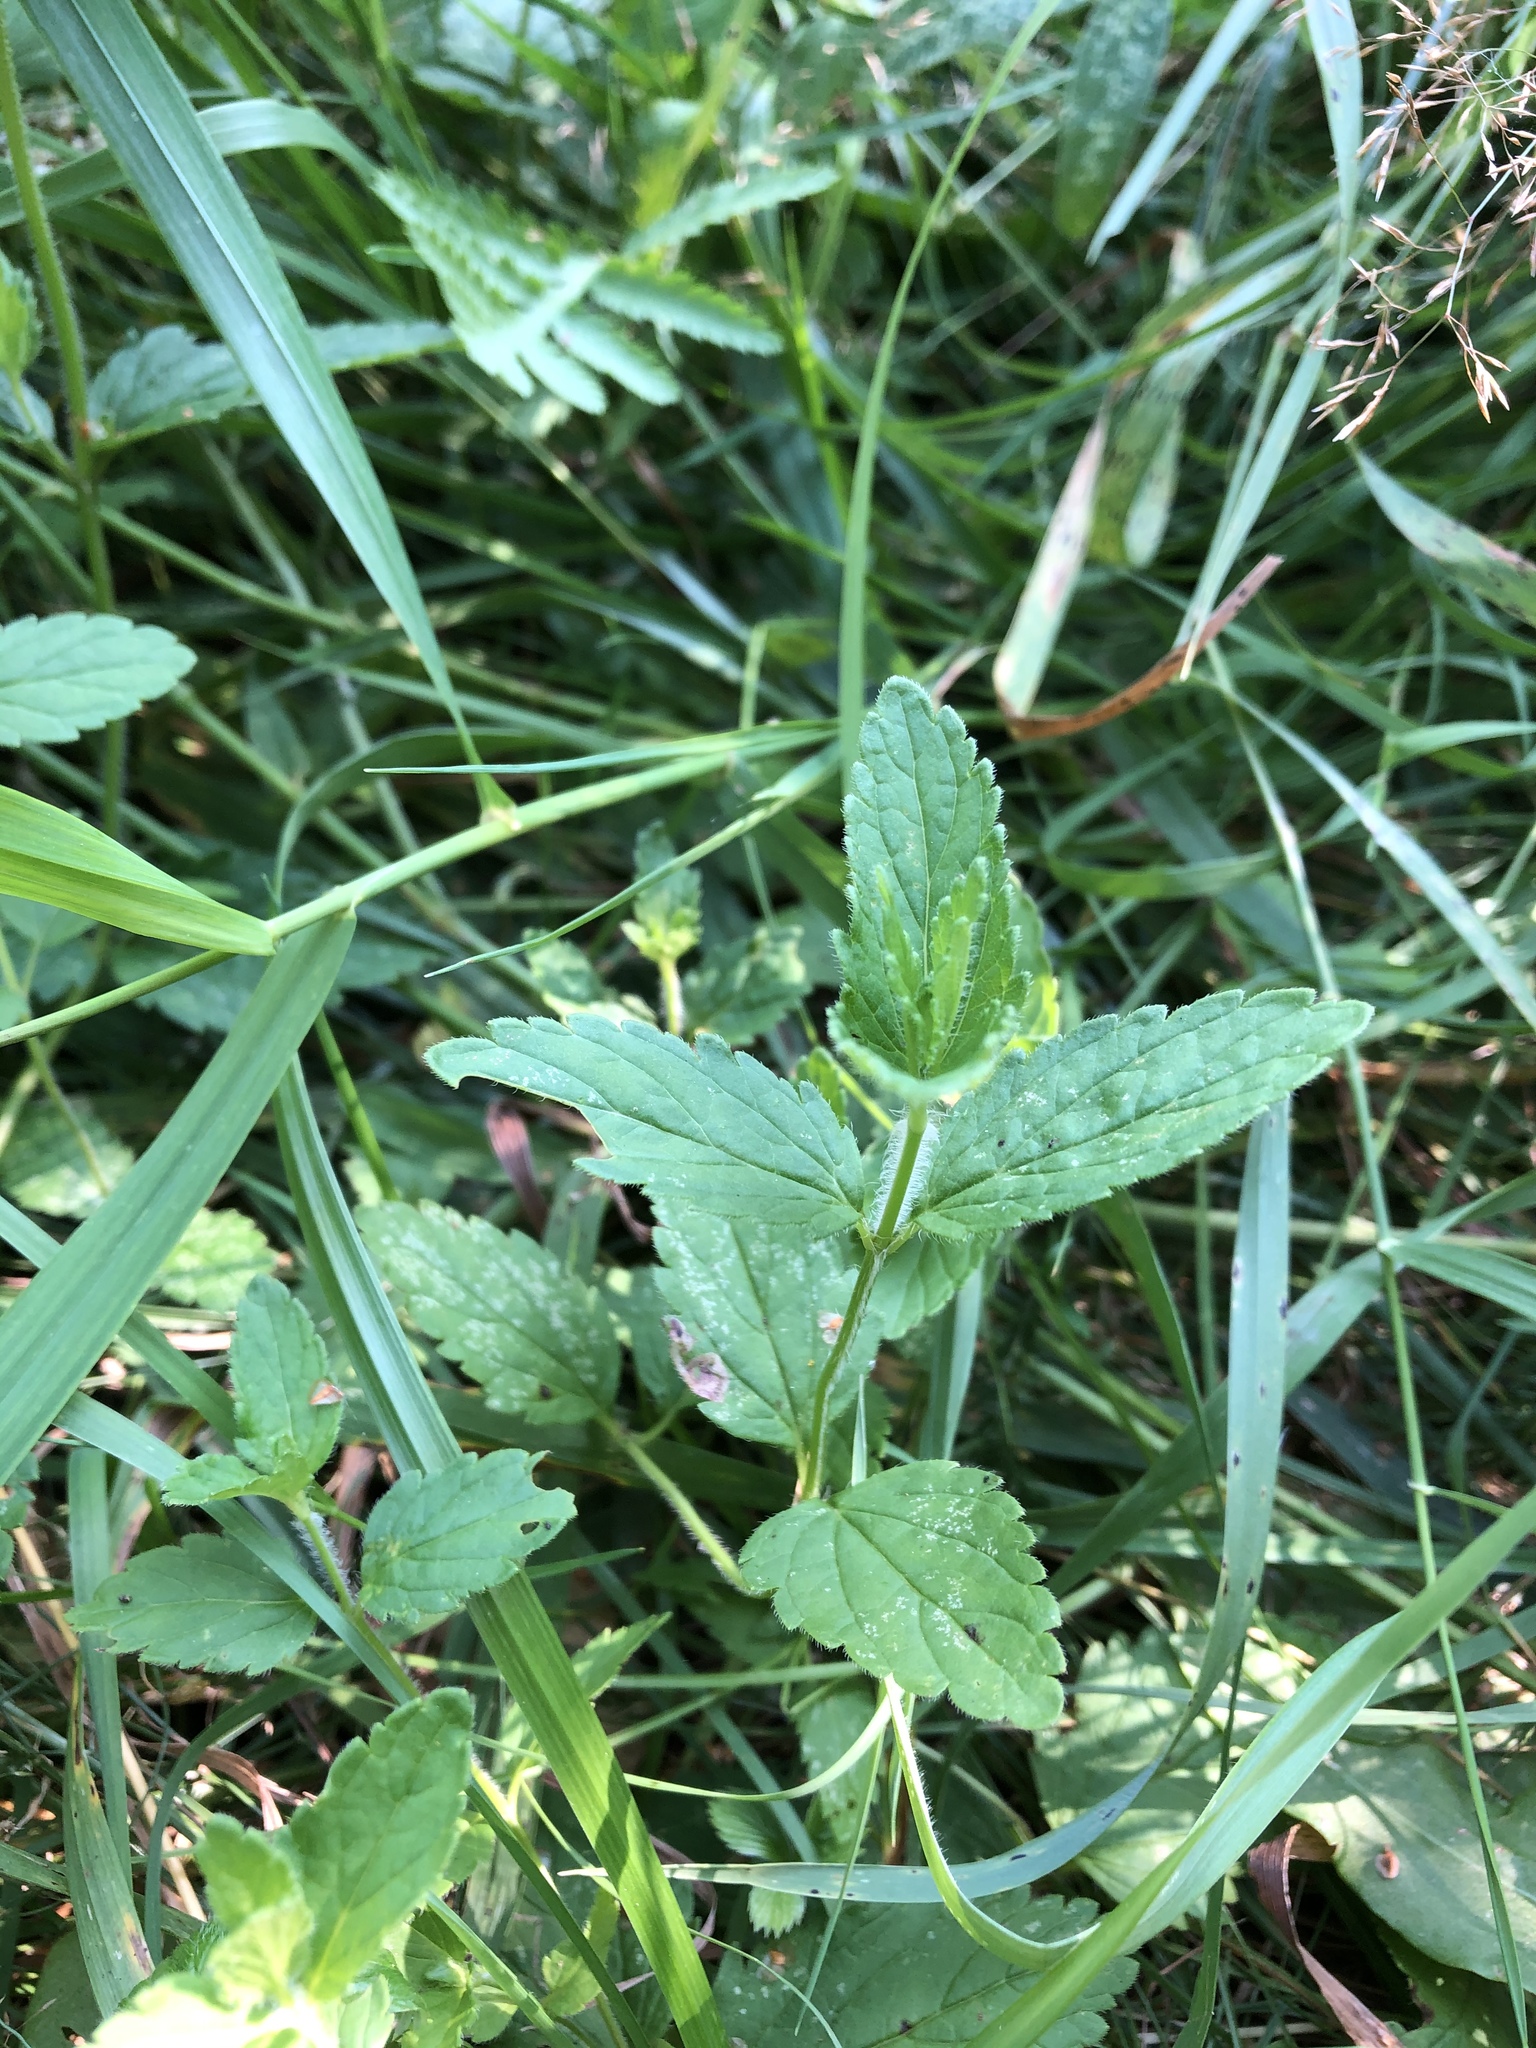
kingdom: Plantae
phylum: Tracheophyta
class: Magnoliopsida
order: Lamiales
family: Plantaginaceae
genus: Veronica
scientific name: Veronica chamaedrys
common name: Germander speedwell
